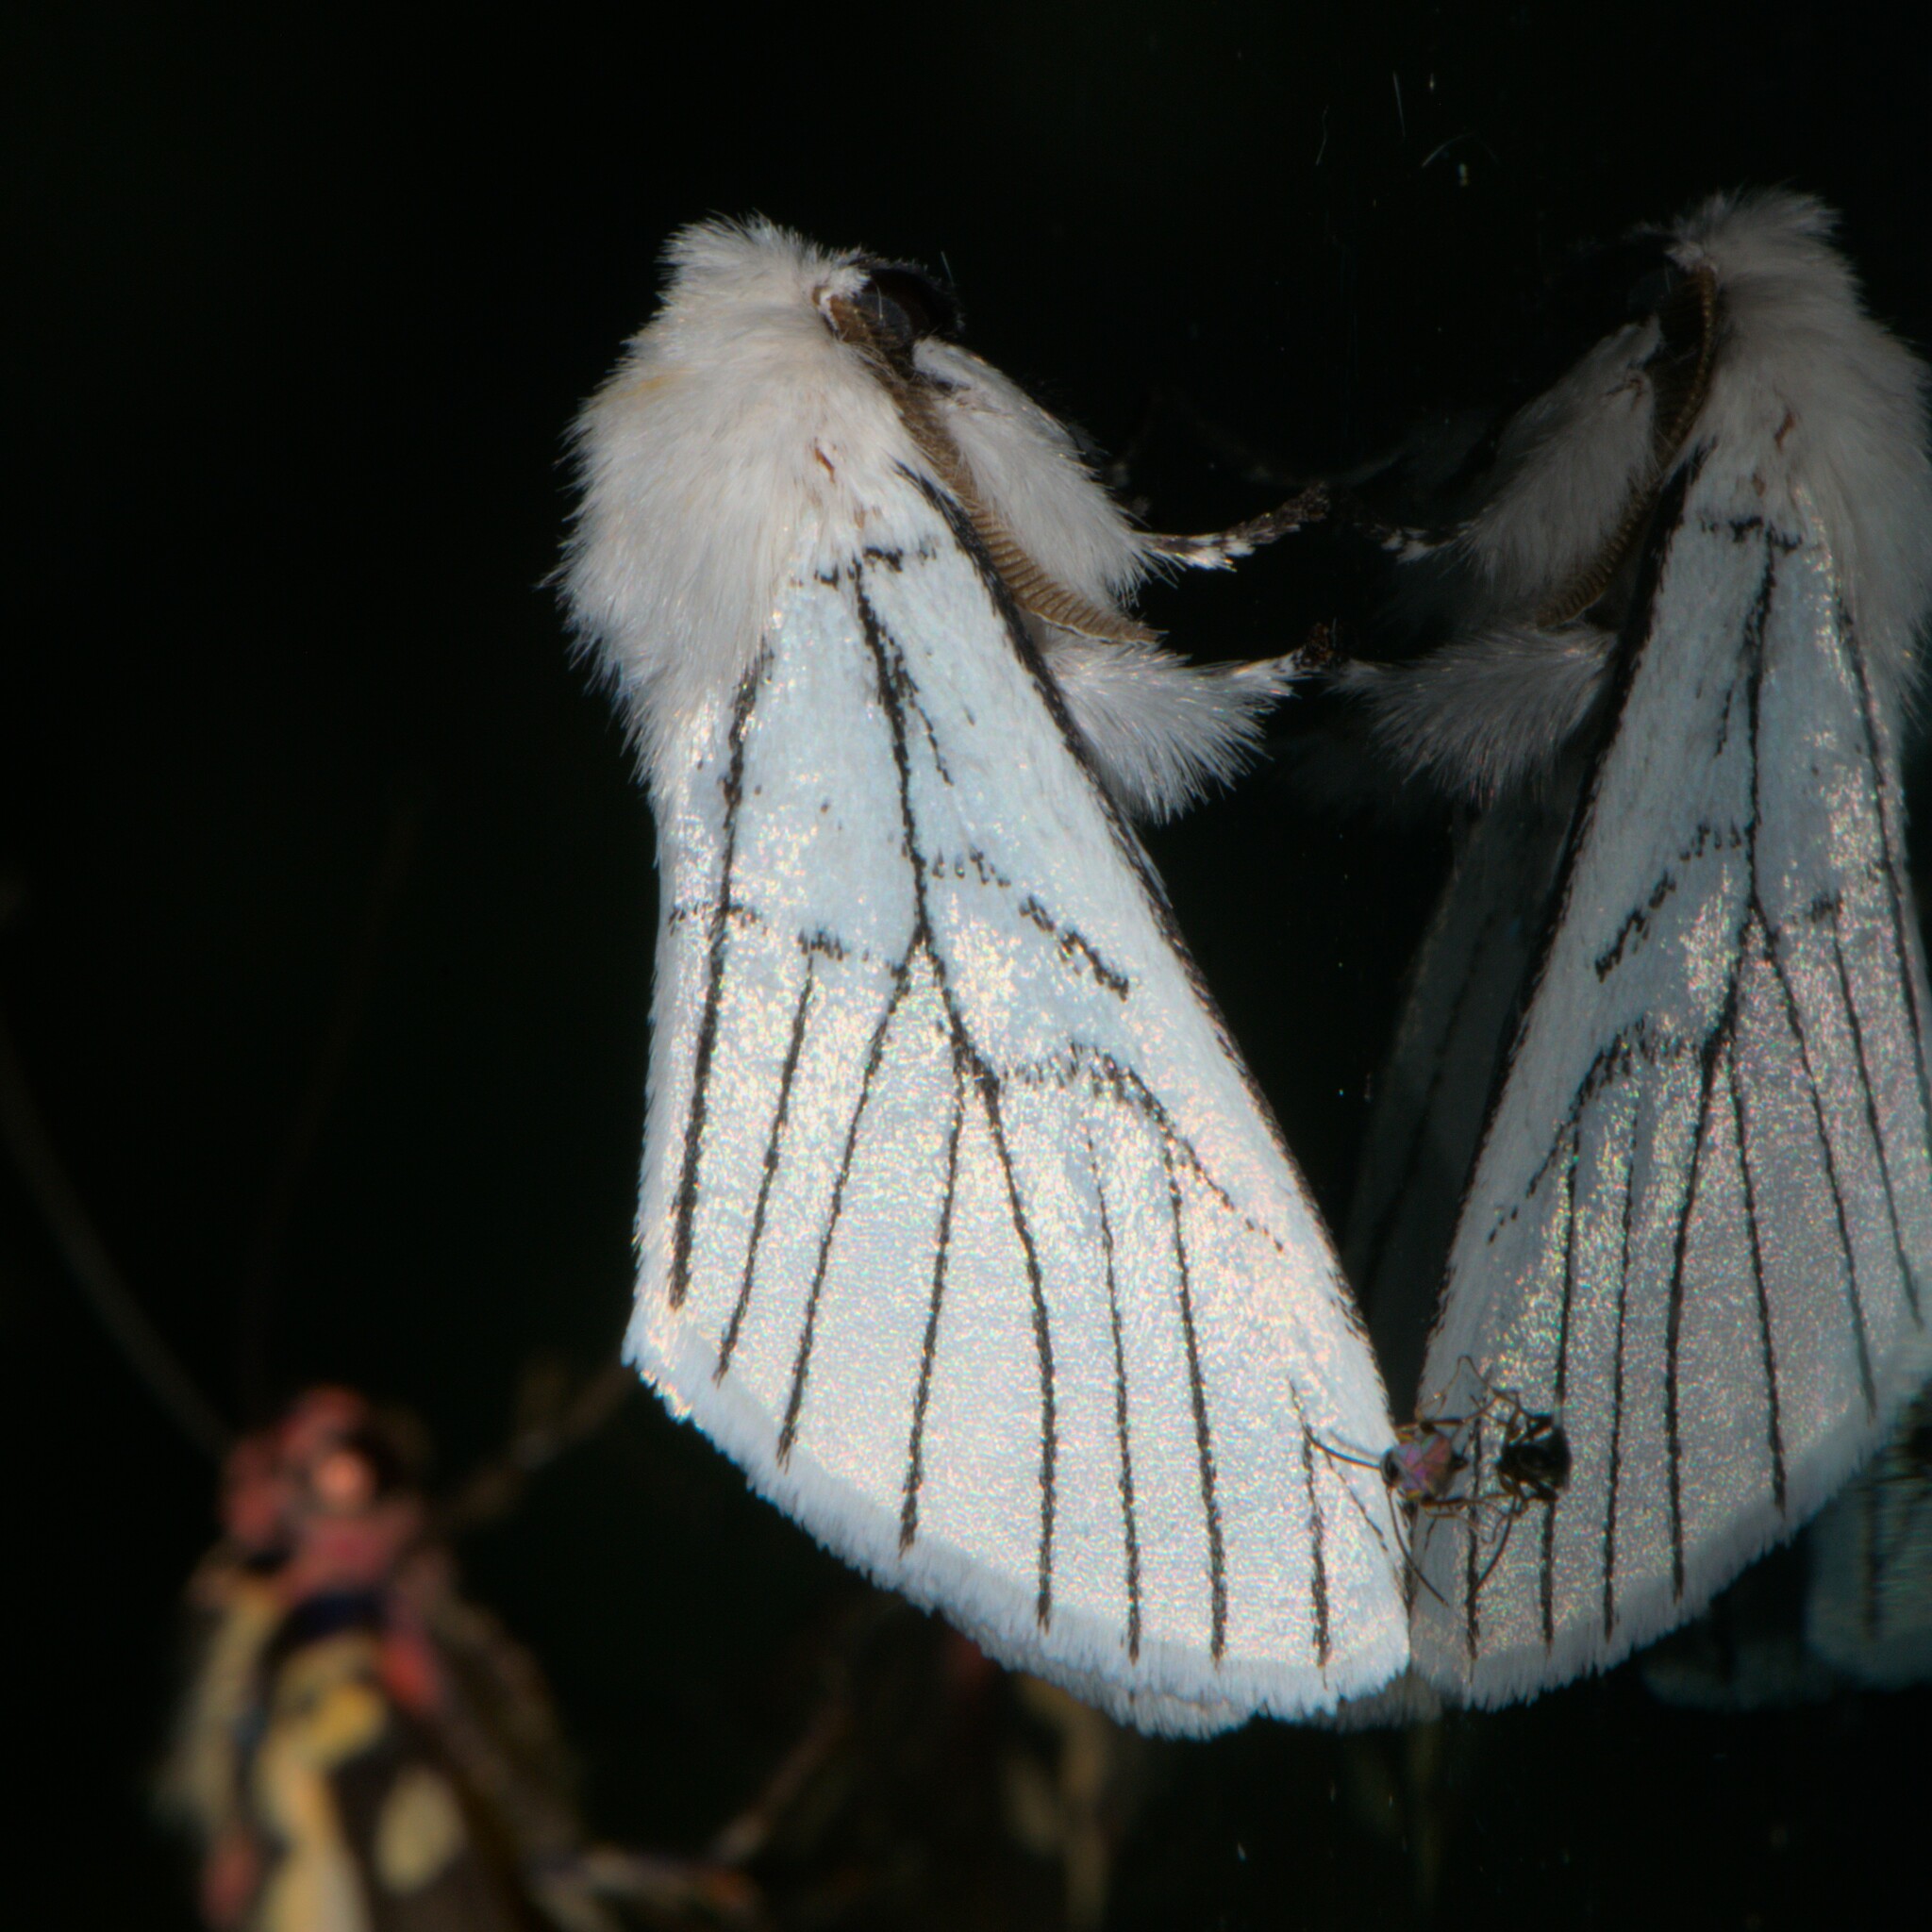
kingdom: Animalia
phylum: Arthropoda
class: Insecta
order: Lepidoptera
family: Notodontidae
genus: Oligoclona
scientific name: Oligoclona chrysolopha
